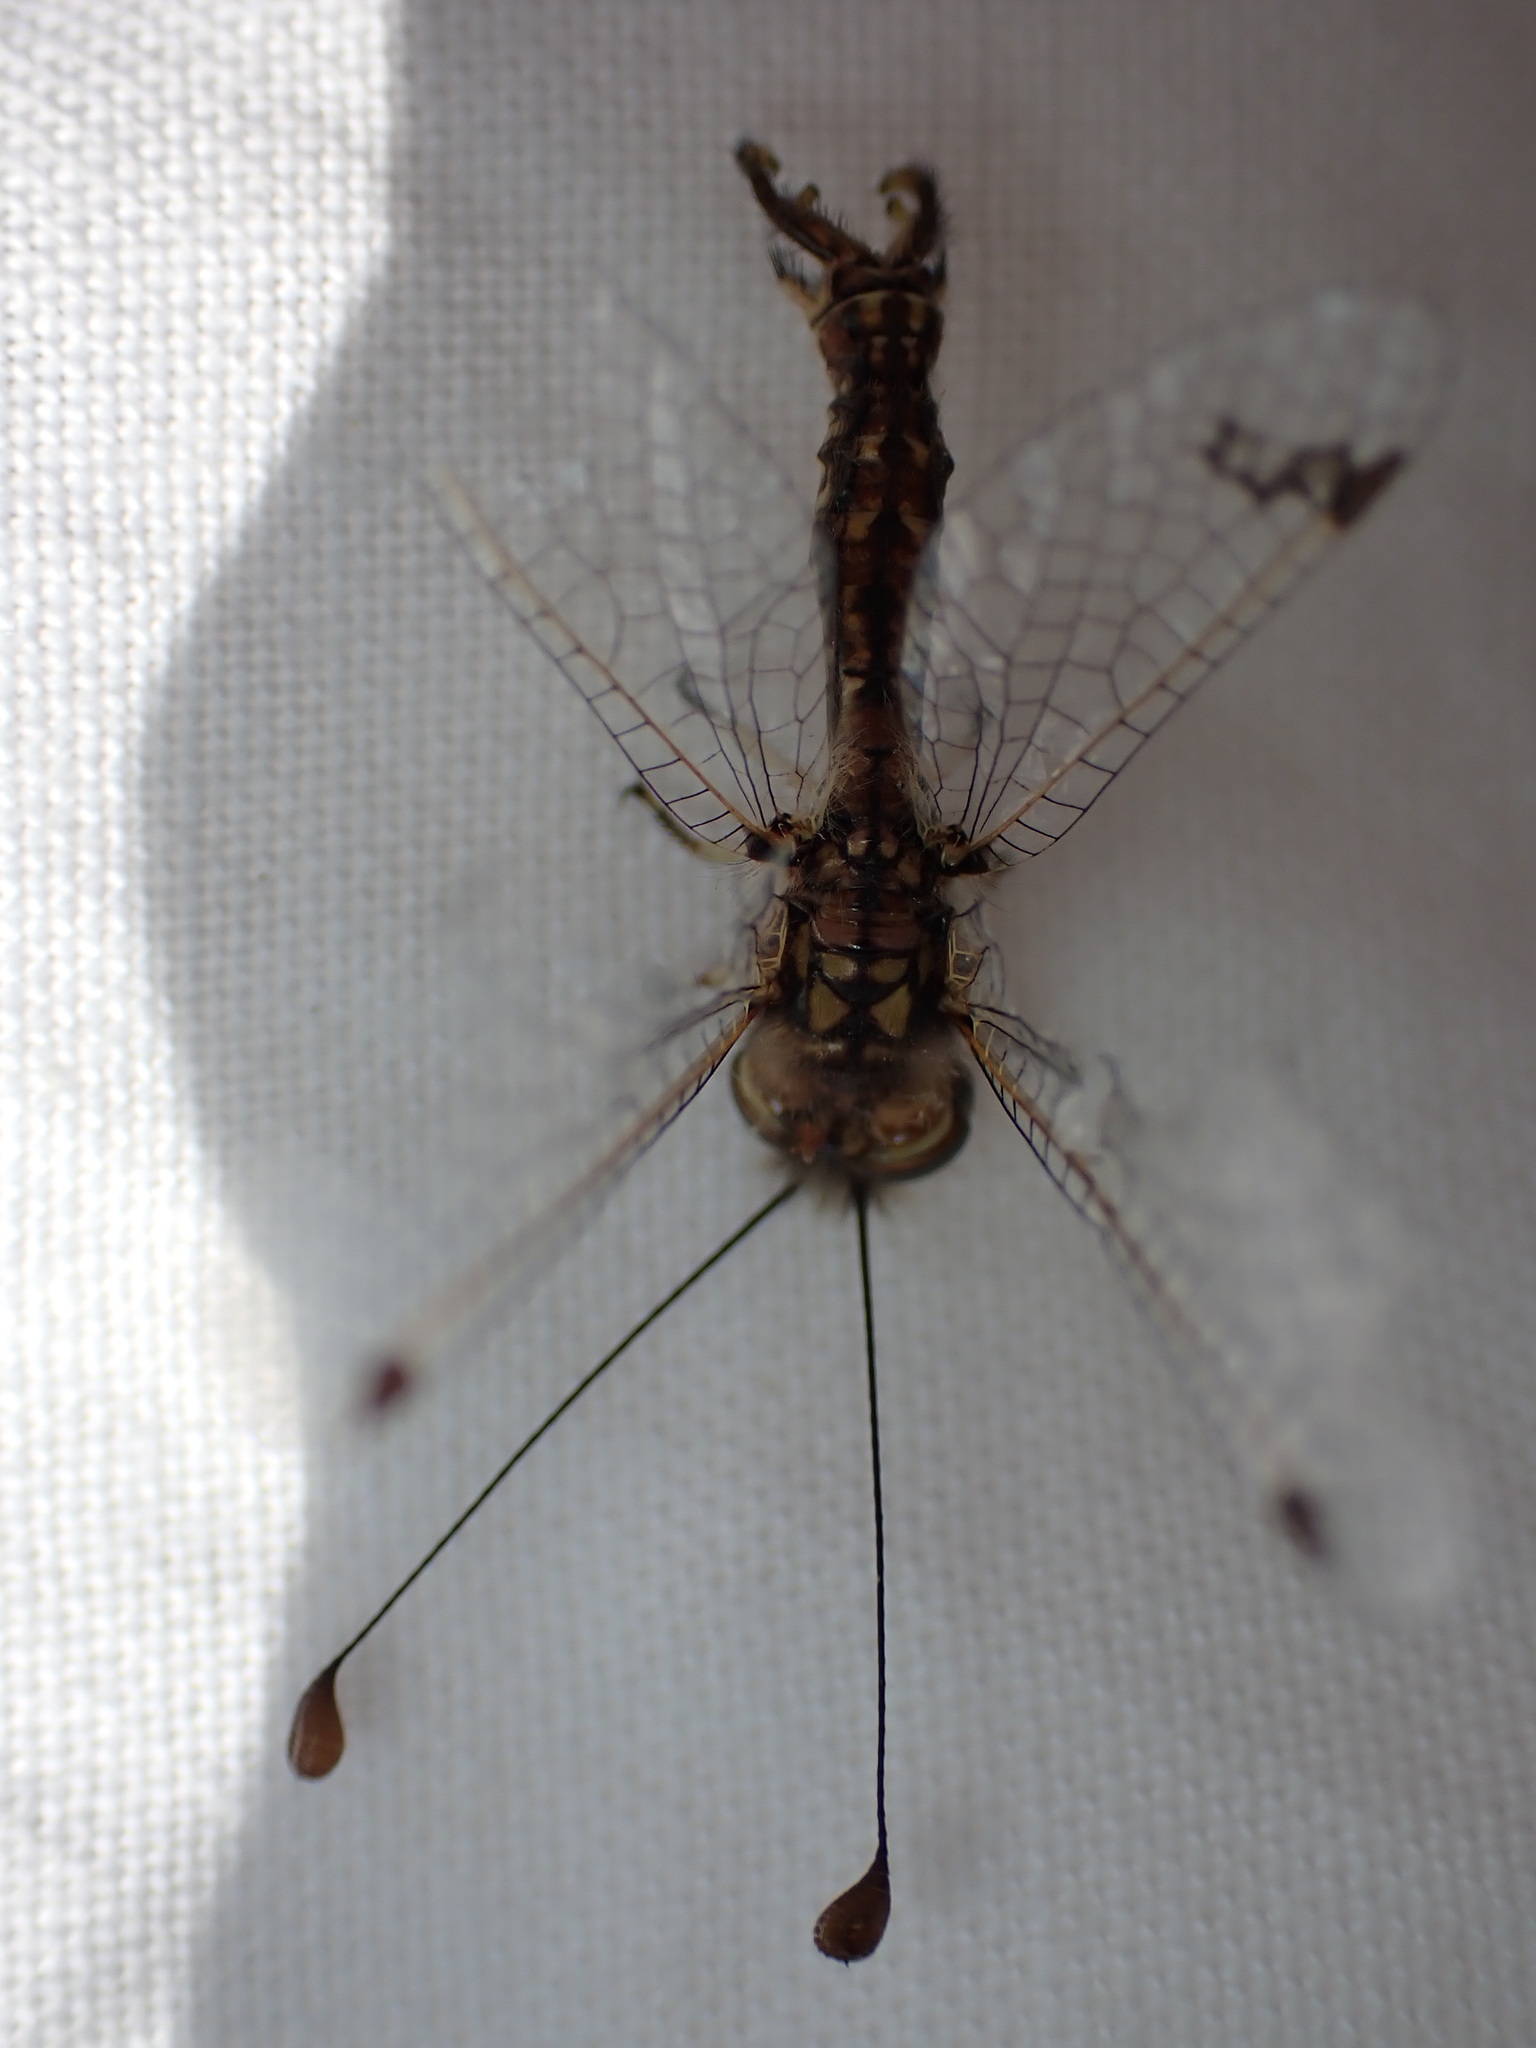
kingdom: Animalia
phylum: Arthropoda
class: Insecta
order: Neuroptera
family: Ascalaphidae
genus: Deleproctophylla
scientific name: Deleproctophylla dusmeti
